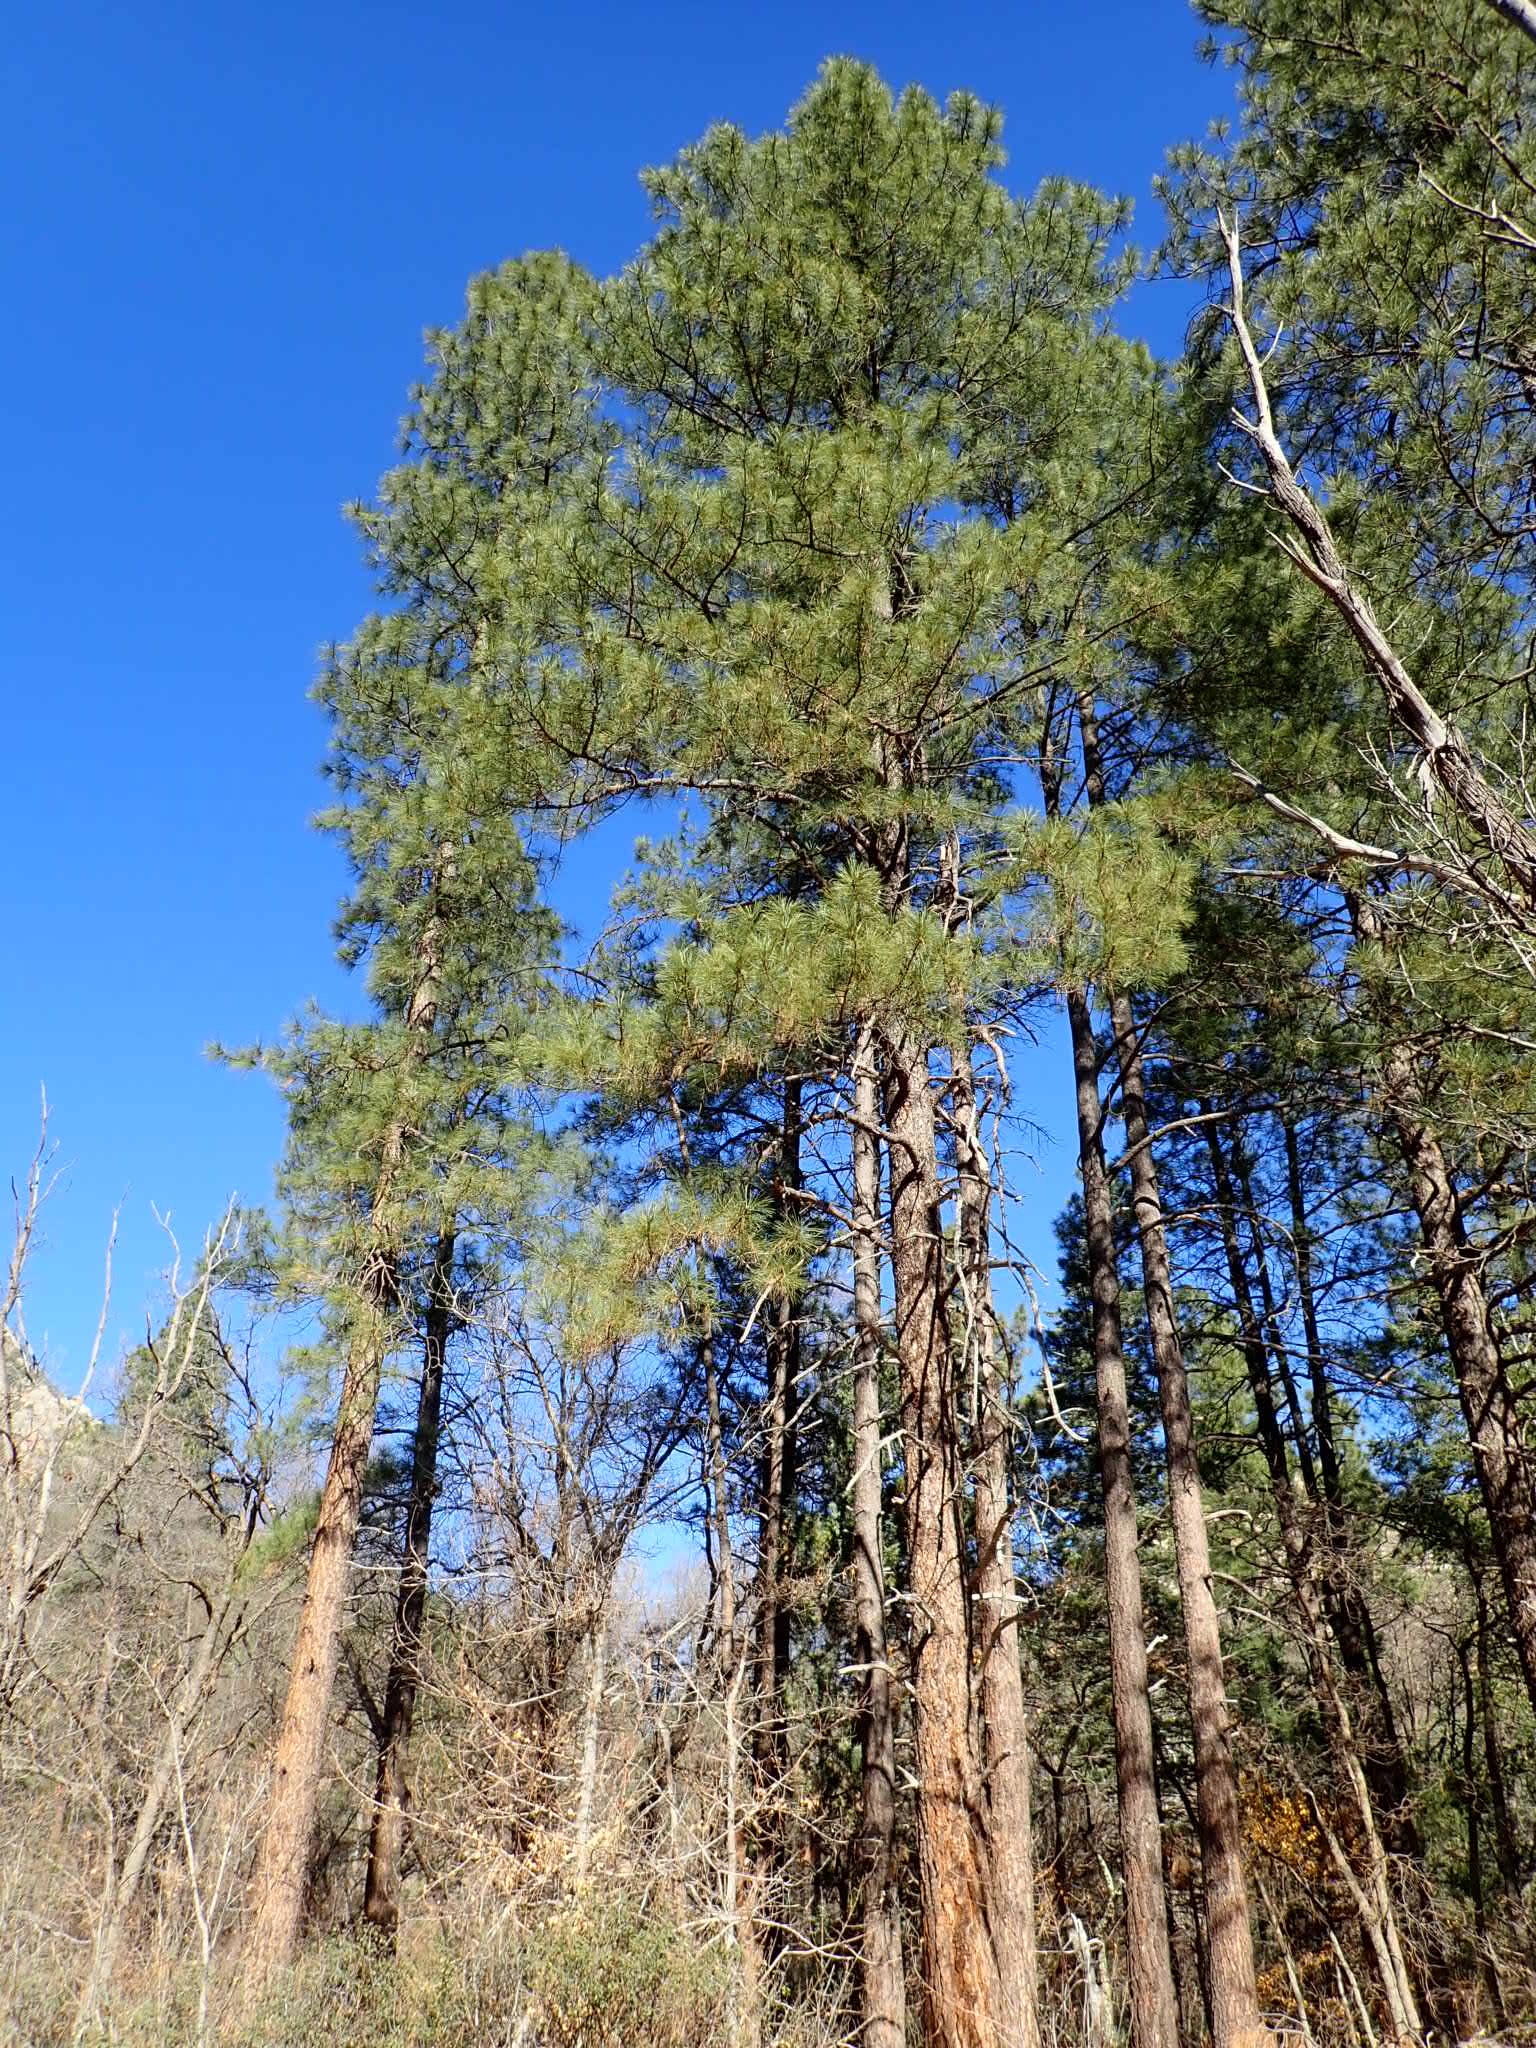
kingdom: Plantae
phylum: Tracheophyta
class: Pinopsida
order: Pinales
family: Pinaceae
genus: Pinus
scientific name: Pinus ponderosa
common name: Western yellow-pine
